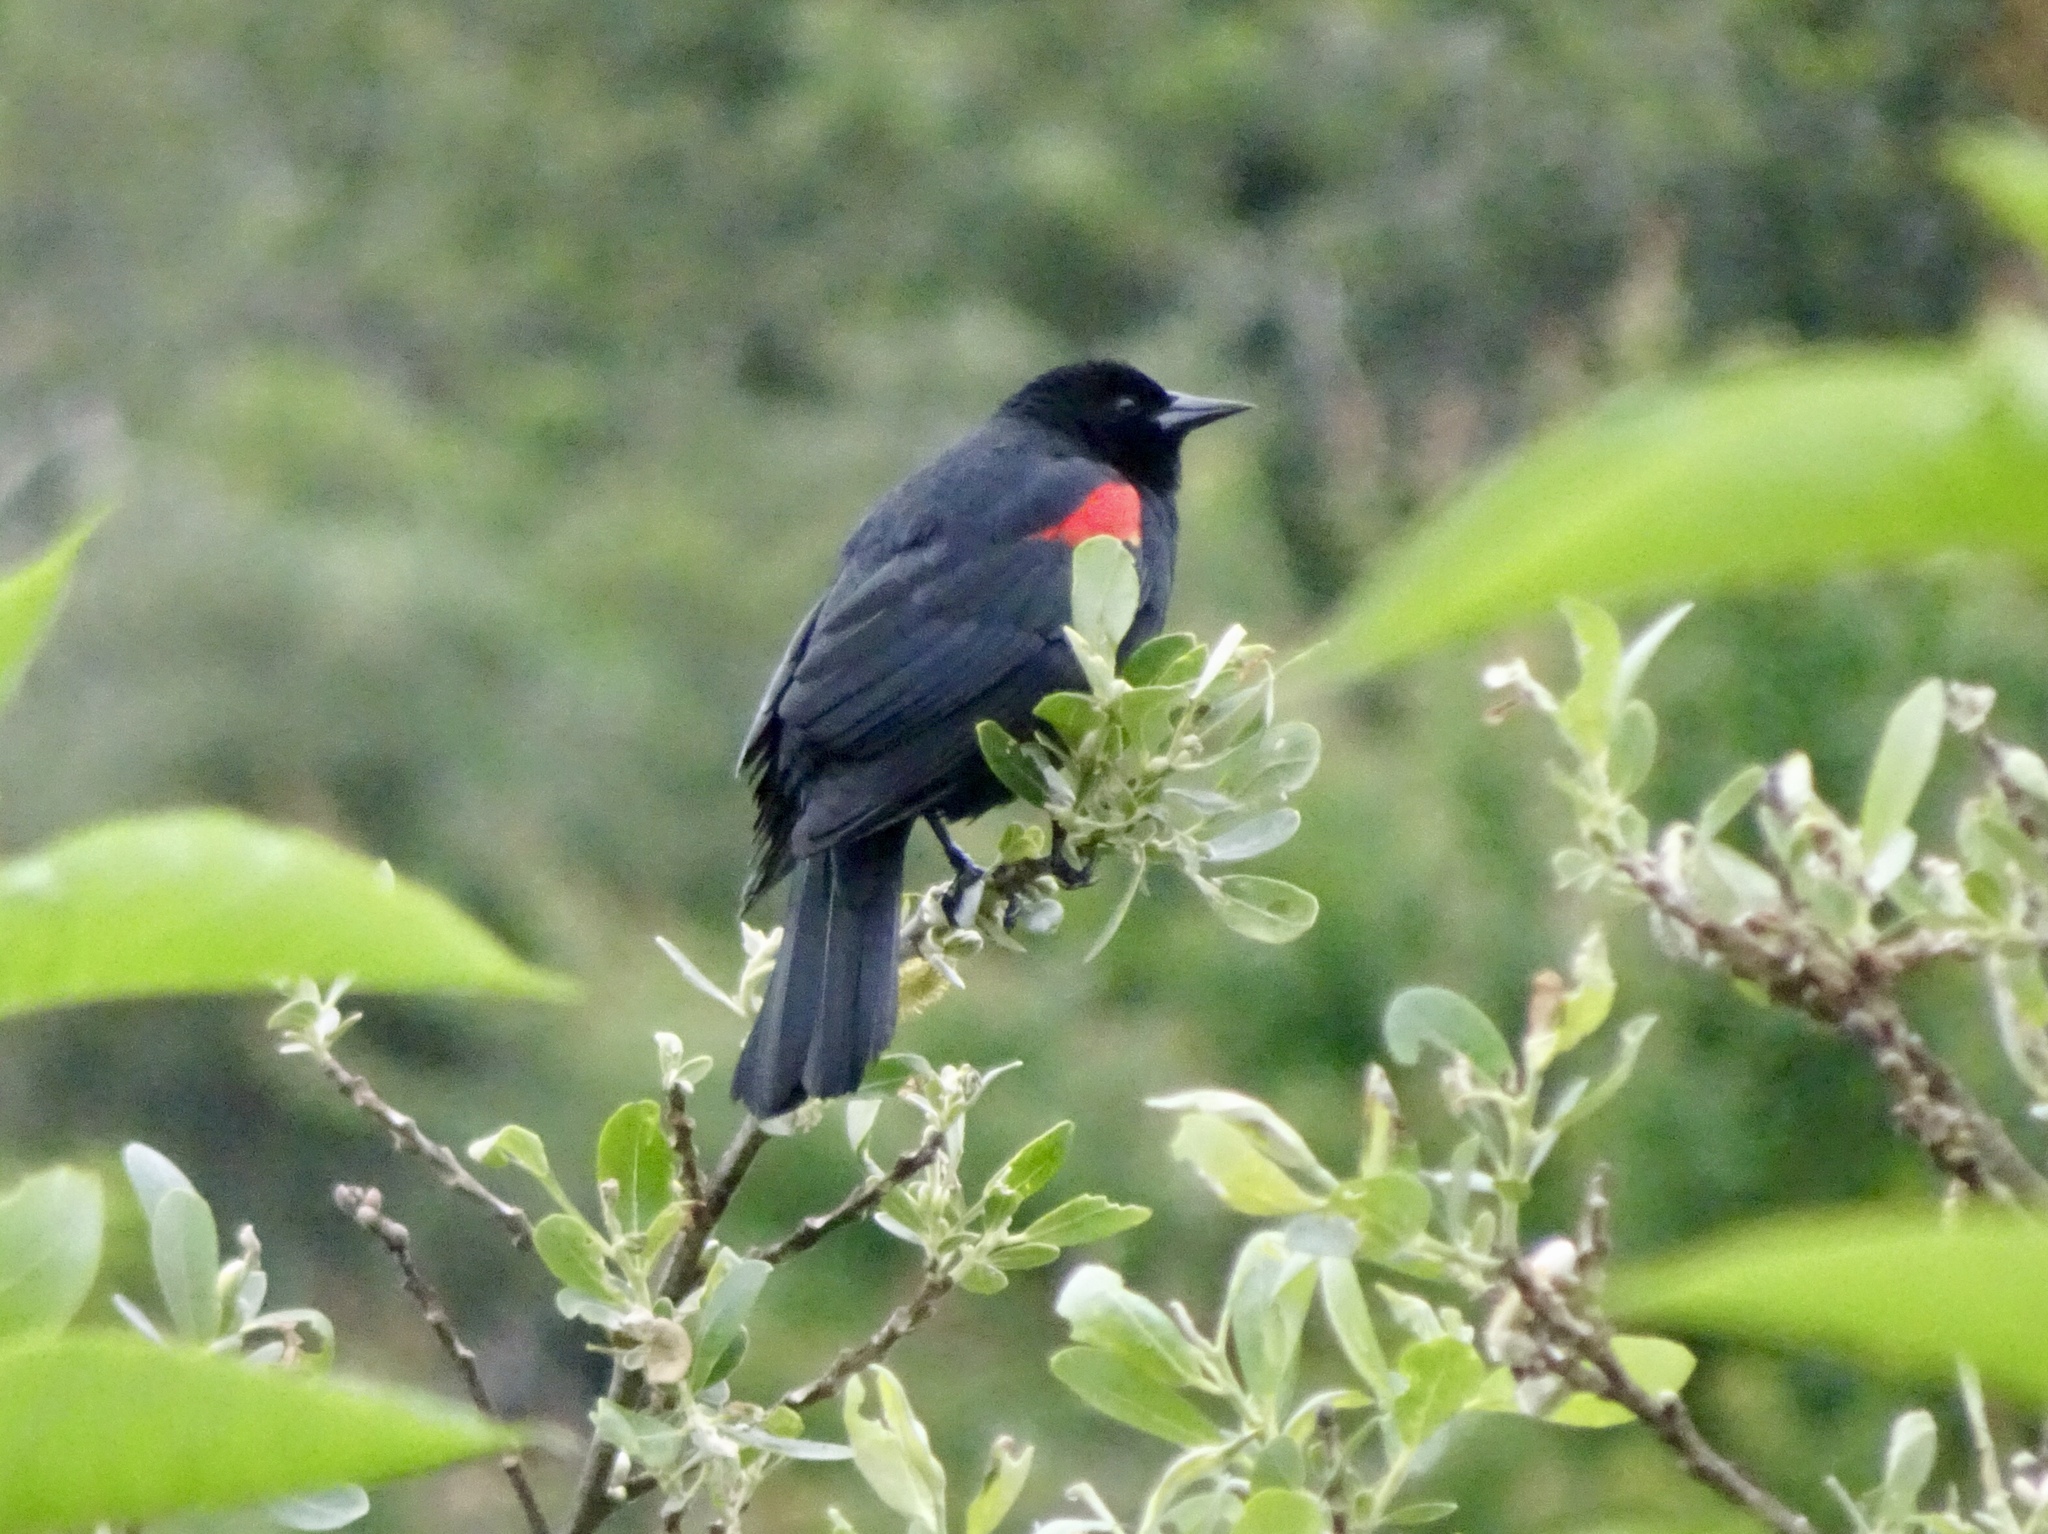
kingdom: Animalia
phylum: Chordata
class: Aves
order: Passeriformes
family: Icteridae
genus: Agelaius
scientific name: Agelaius phoeniceus
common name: Red-winged blackbird
